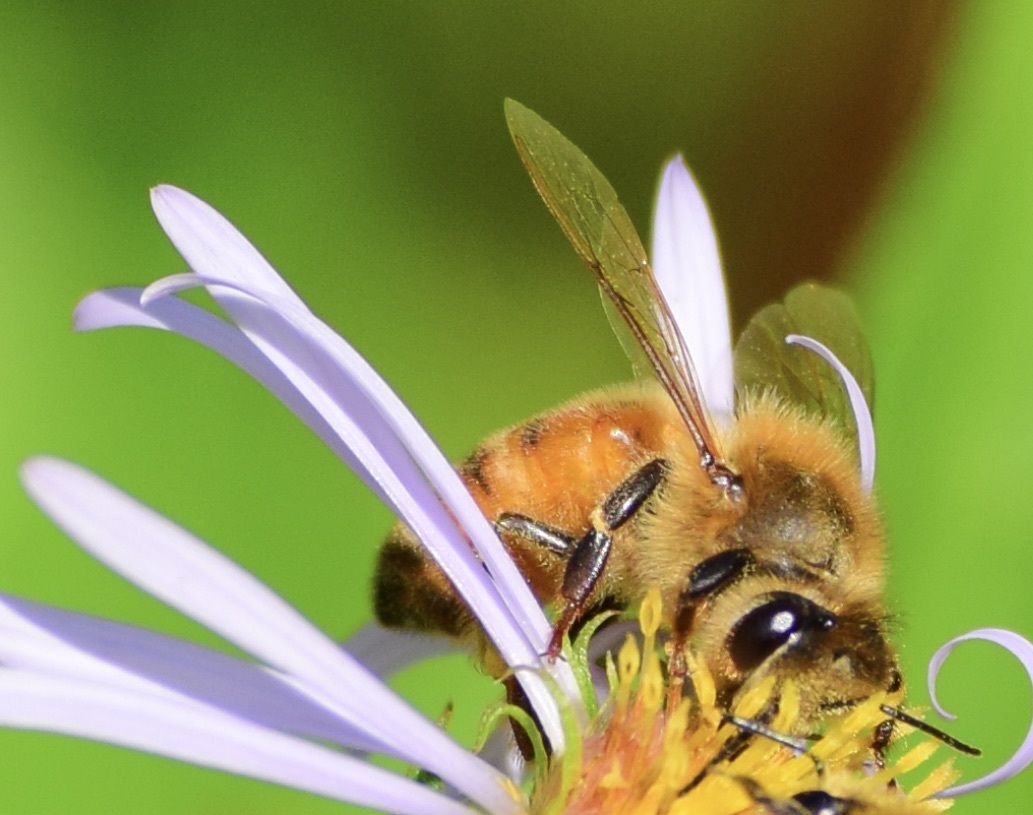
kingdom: Animalia
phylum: Arthropoda
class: Insecta
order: Hymenoptera
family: Apidae
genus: Apis
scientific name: Apis mellifera
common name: Honey bee
